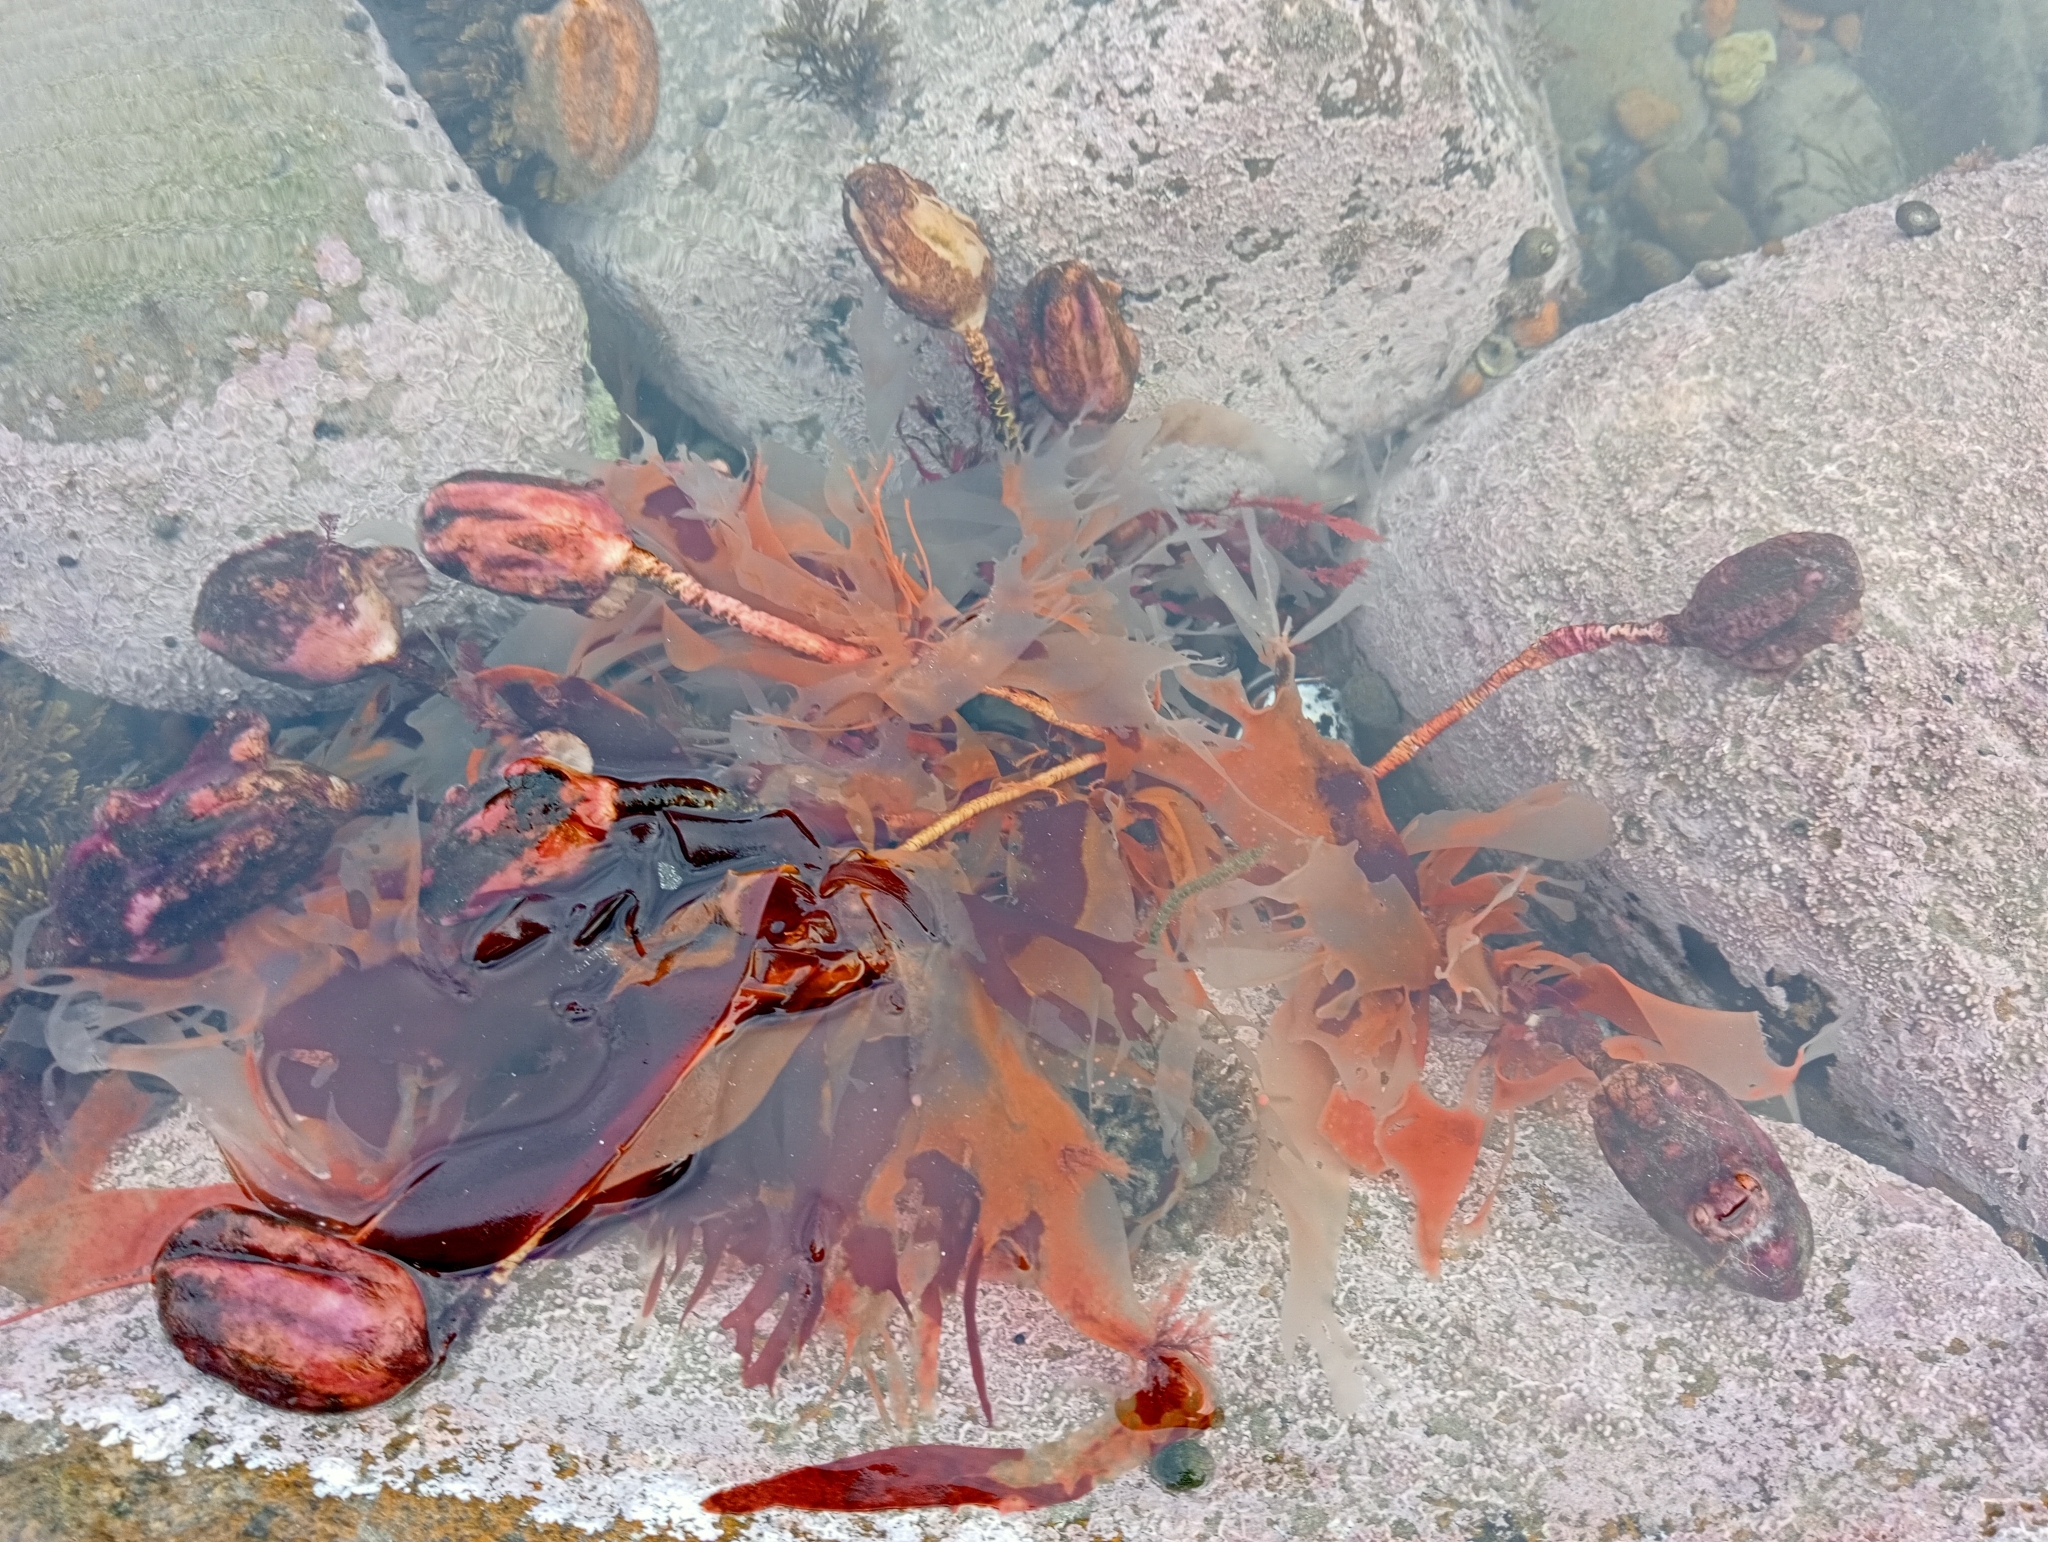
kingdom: Animalia
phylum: Chordata
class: Ascidiacea
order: Stolidobranchia
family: Pyuridae
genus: Pyura
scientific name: Pyura pachydermatina
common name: Sea tulip
